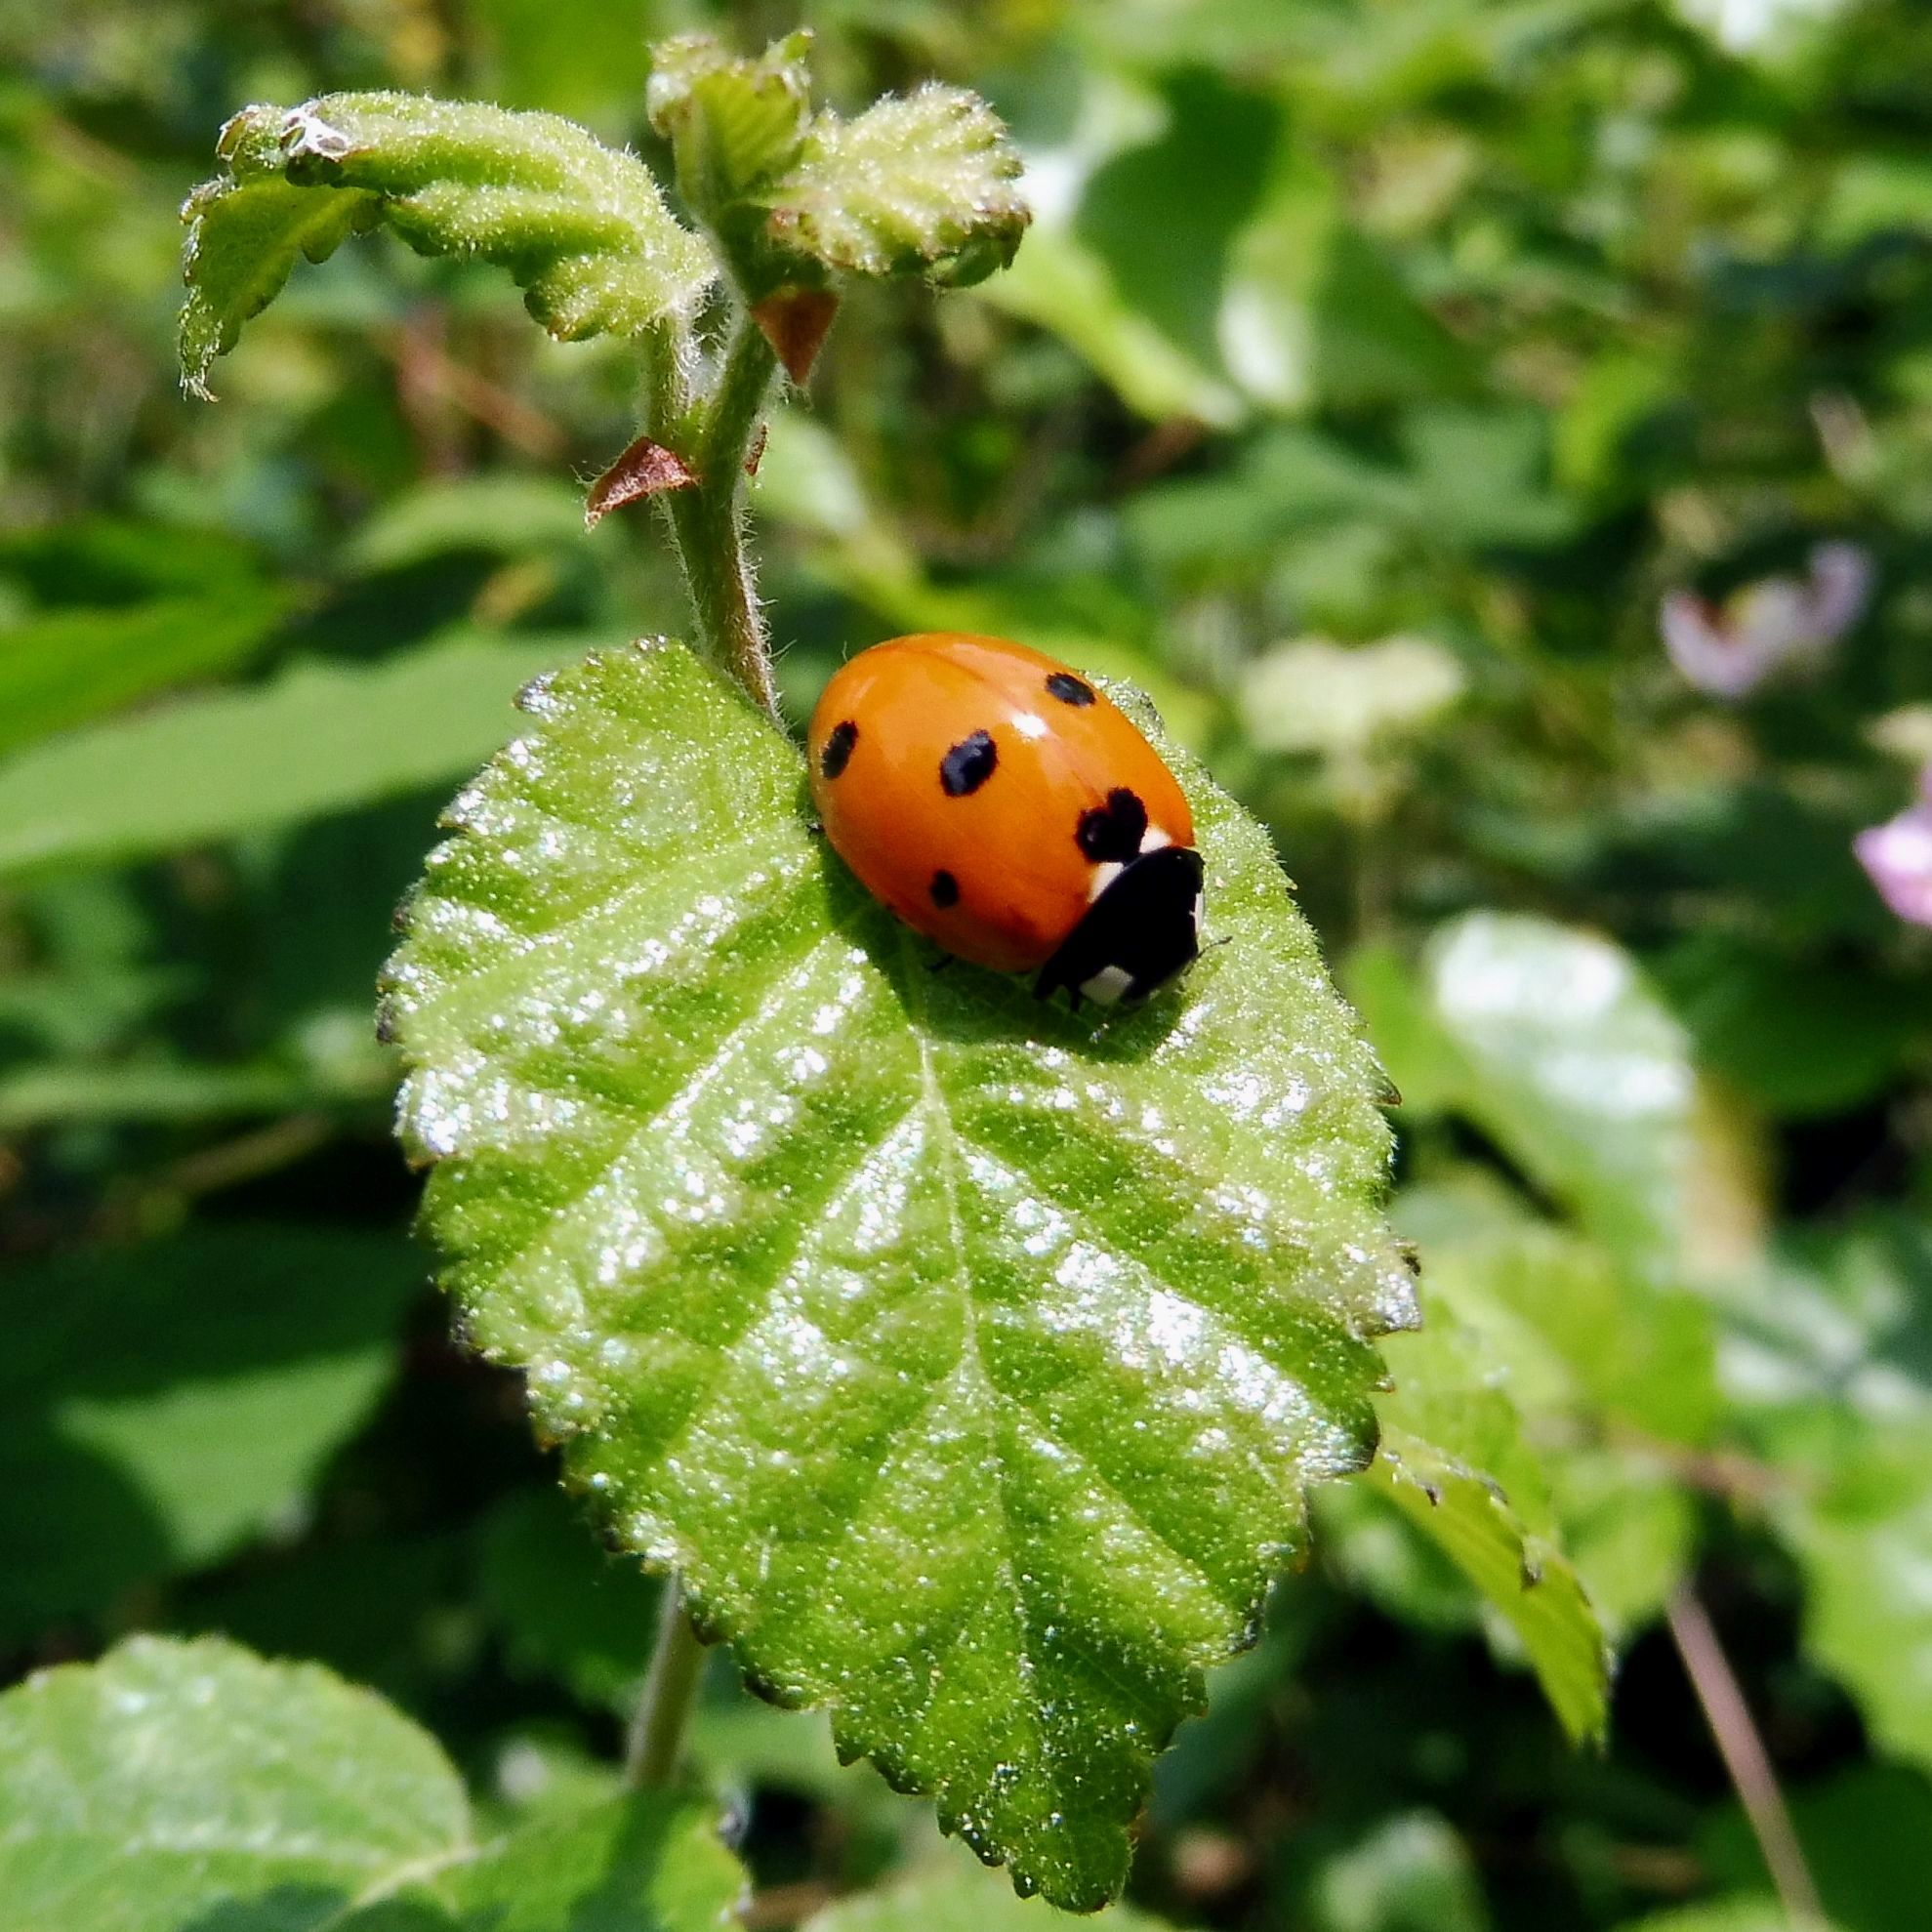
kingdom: Animalia
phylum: Arthropoda
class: Insecta
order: Coleoptera
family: Coccinellidae
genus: Coccinella
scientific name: Coccinella septempunctata
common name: Sevenspotted lady beetle
